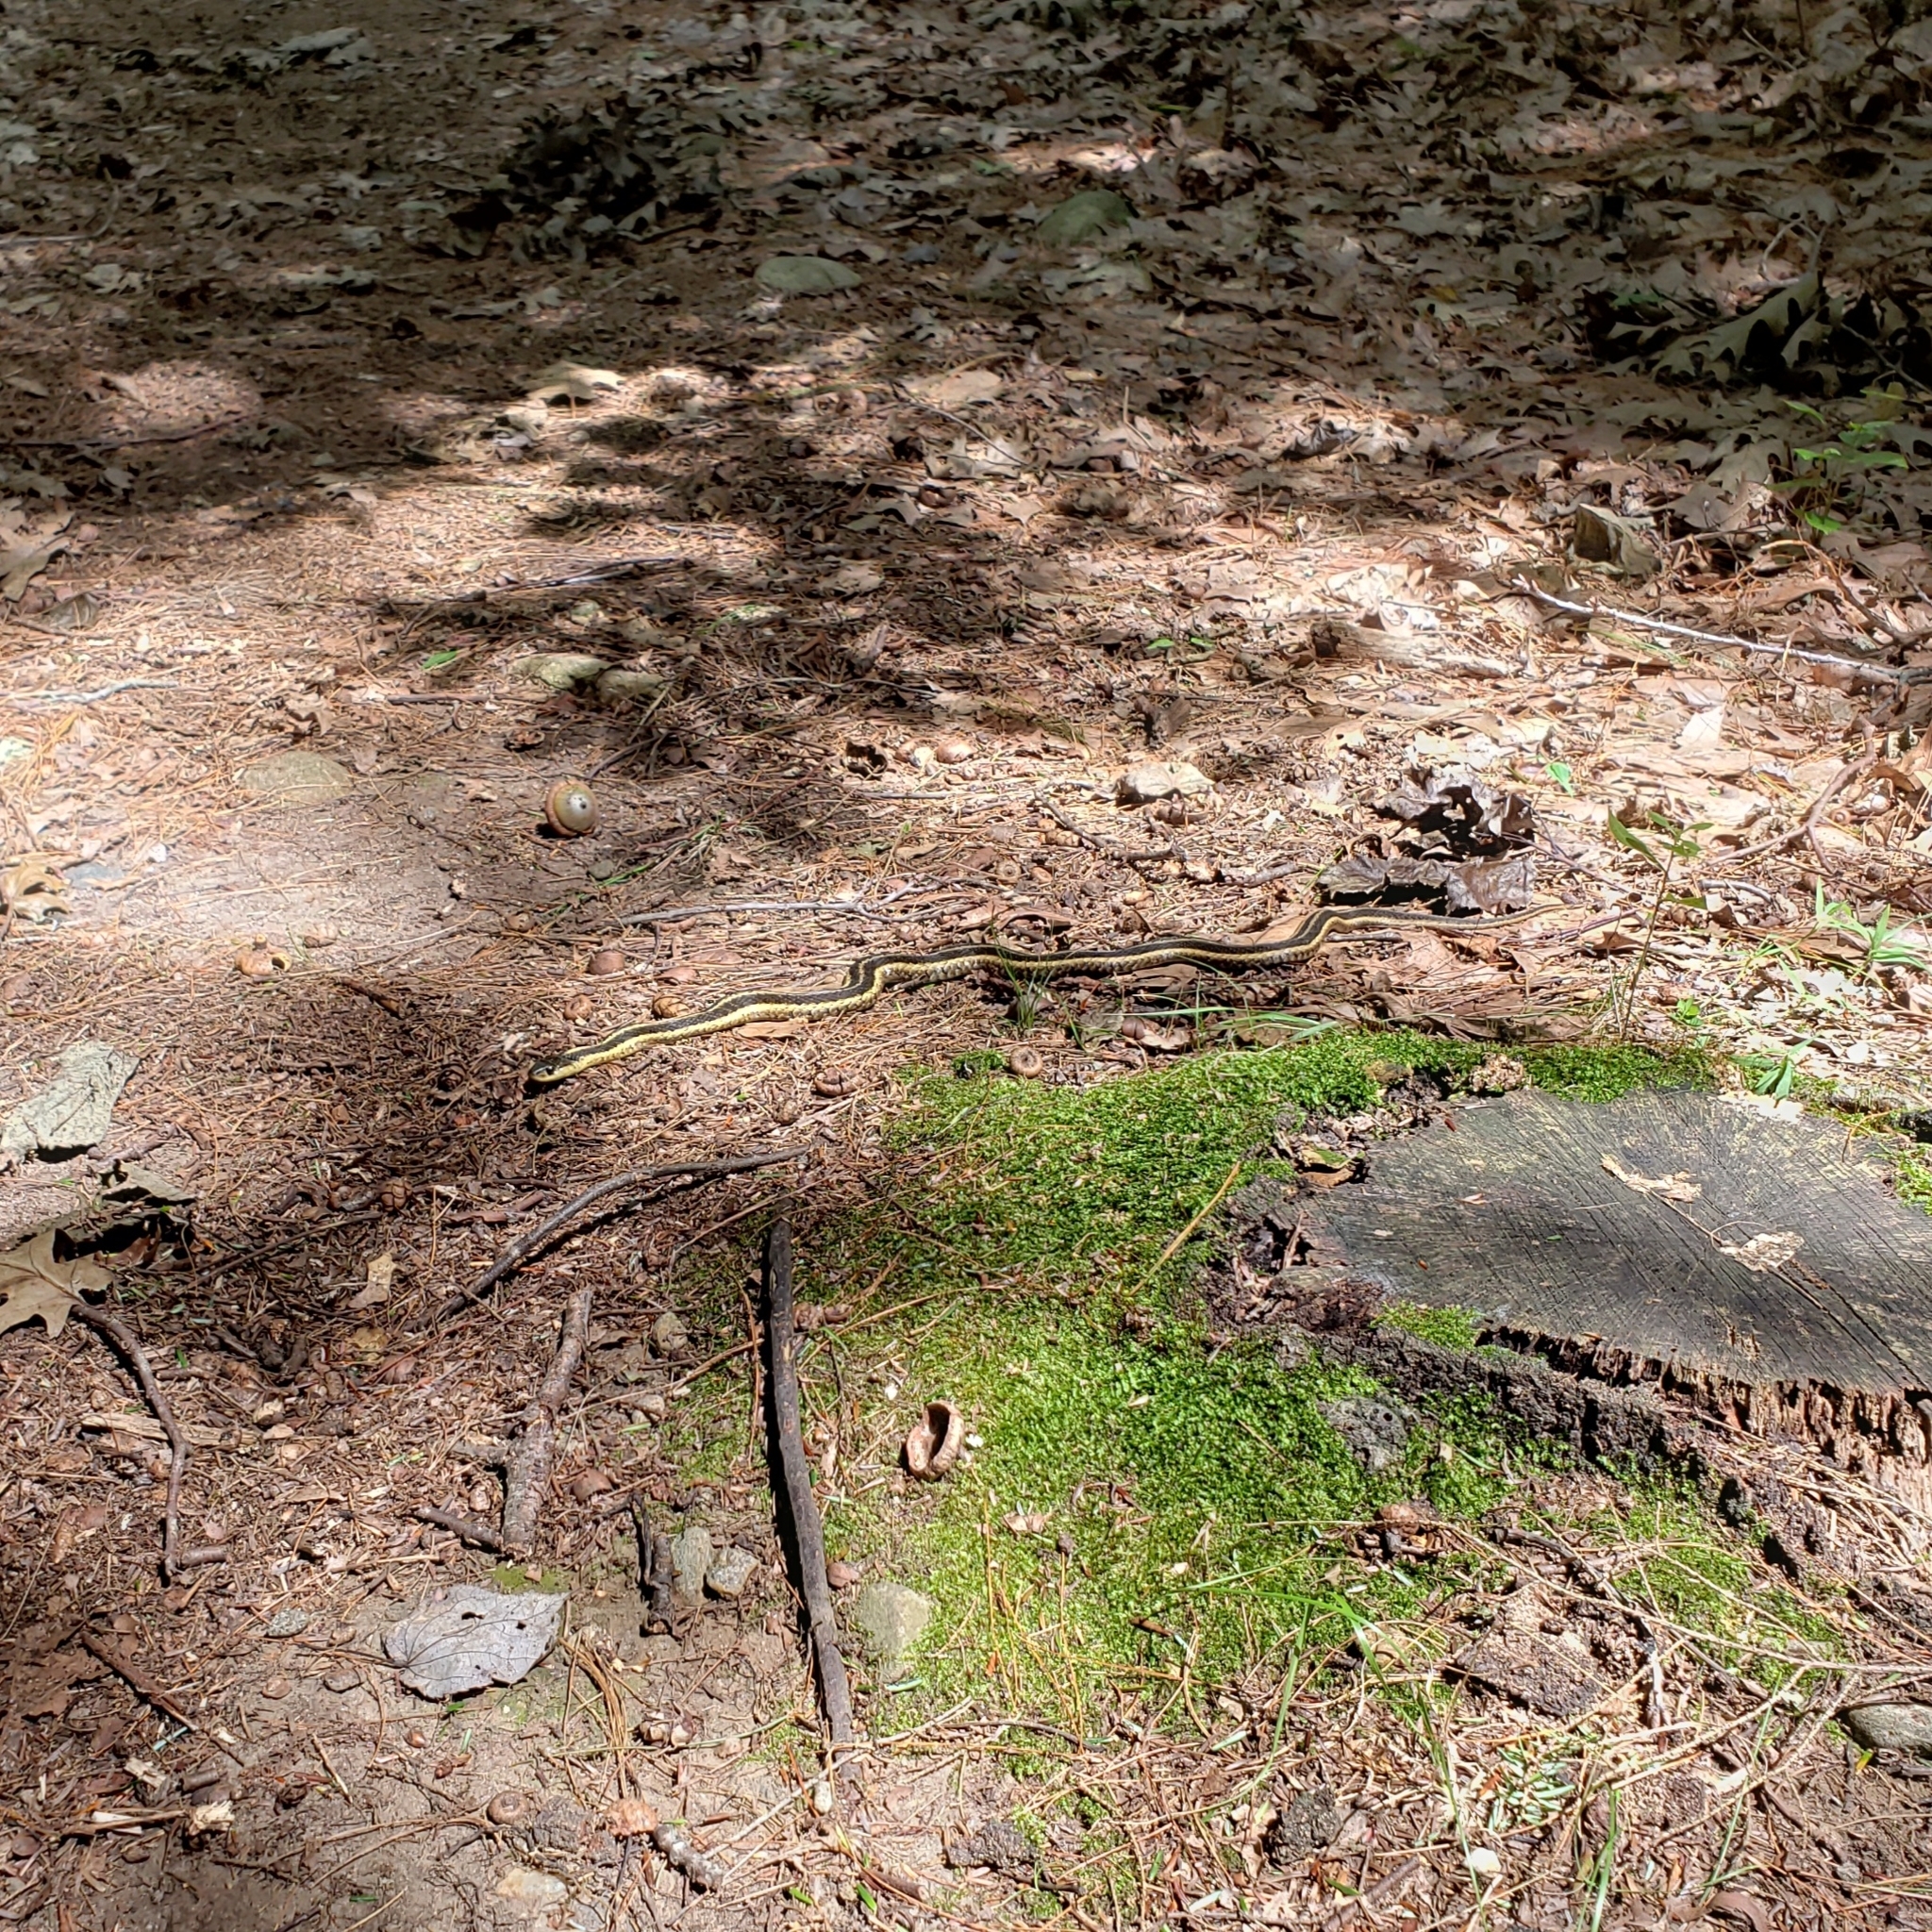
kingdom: Animalia
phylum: Chordata
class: Squamata
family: Colubridae
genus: Thamnophis
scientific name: Thamnophis sirtalis
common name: Common garter snake
